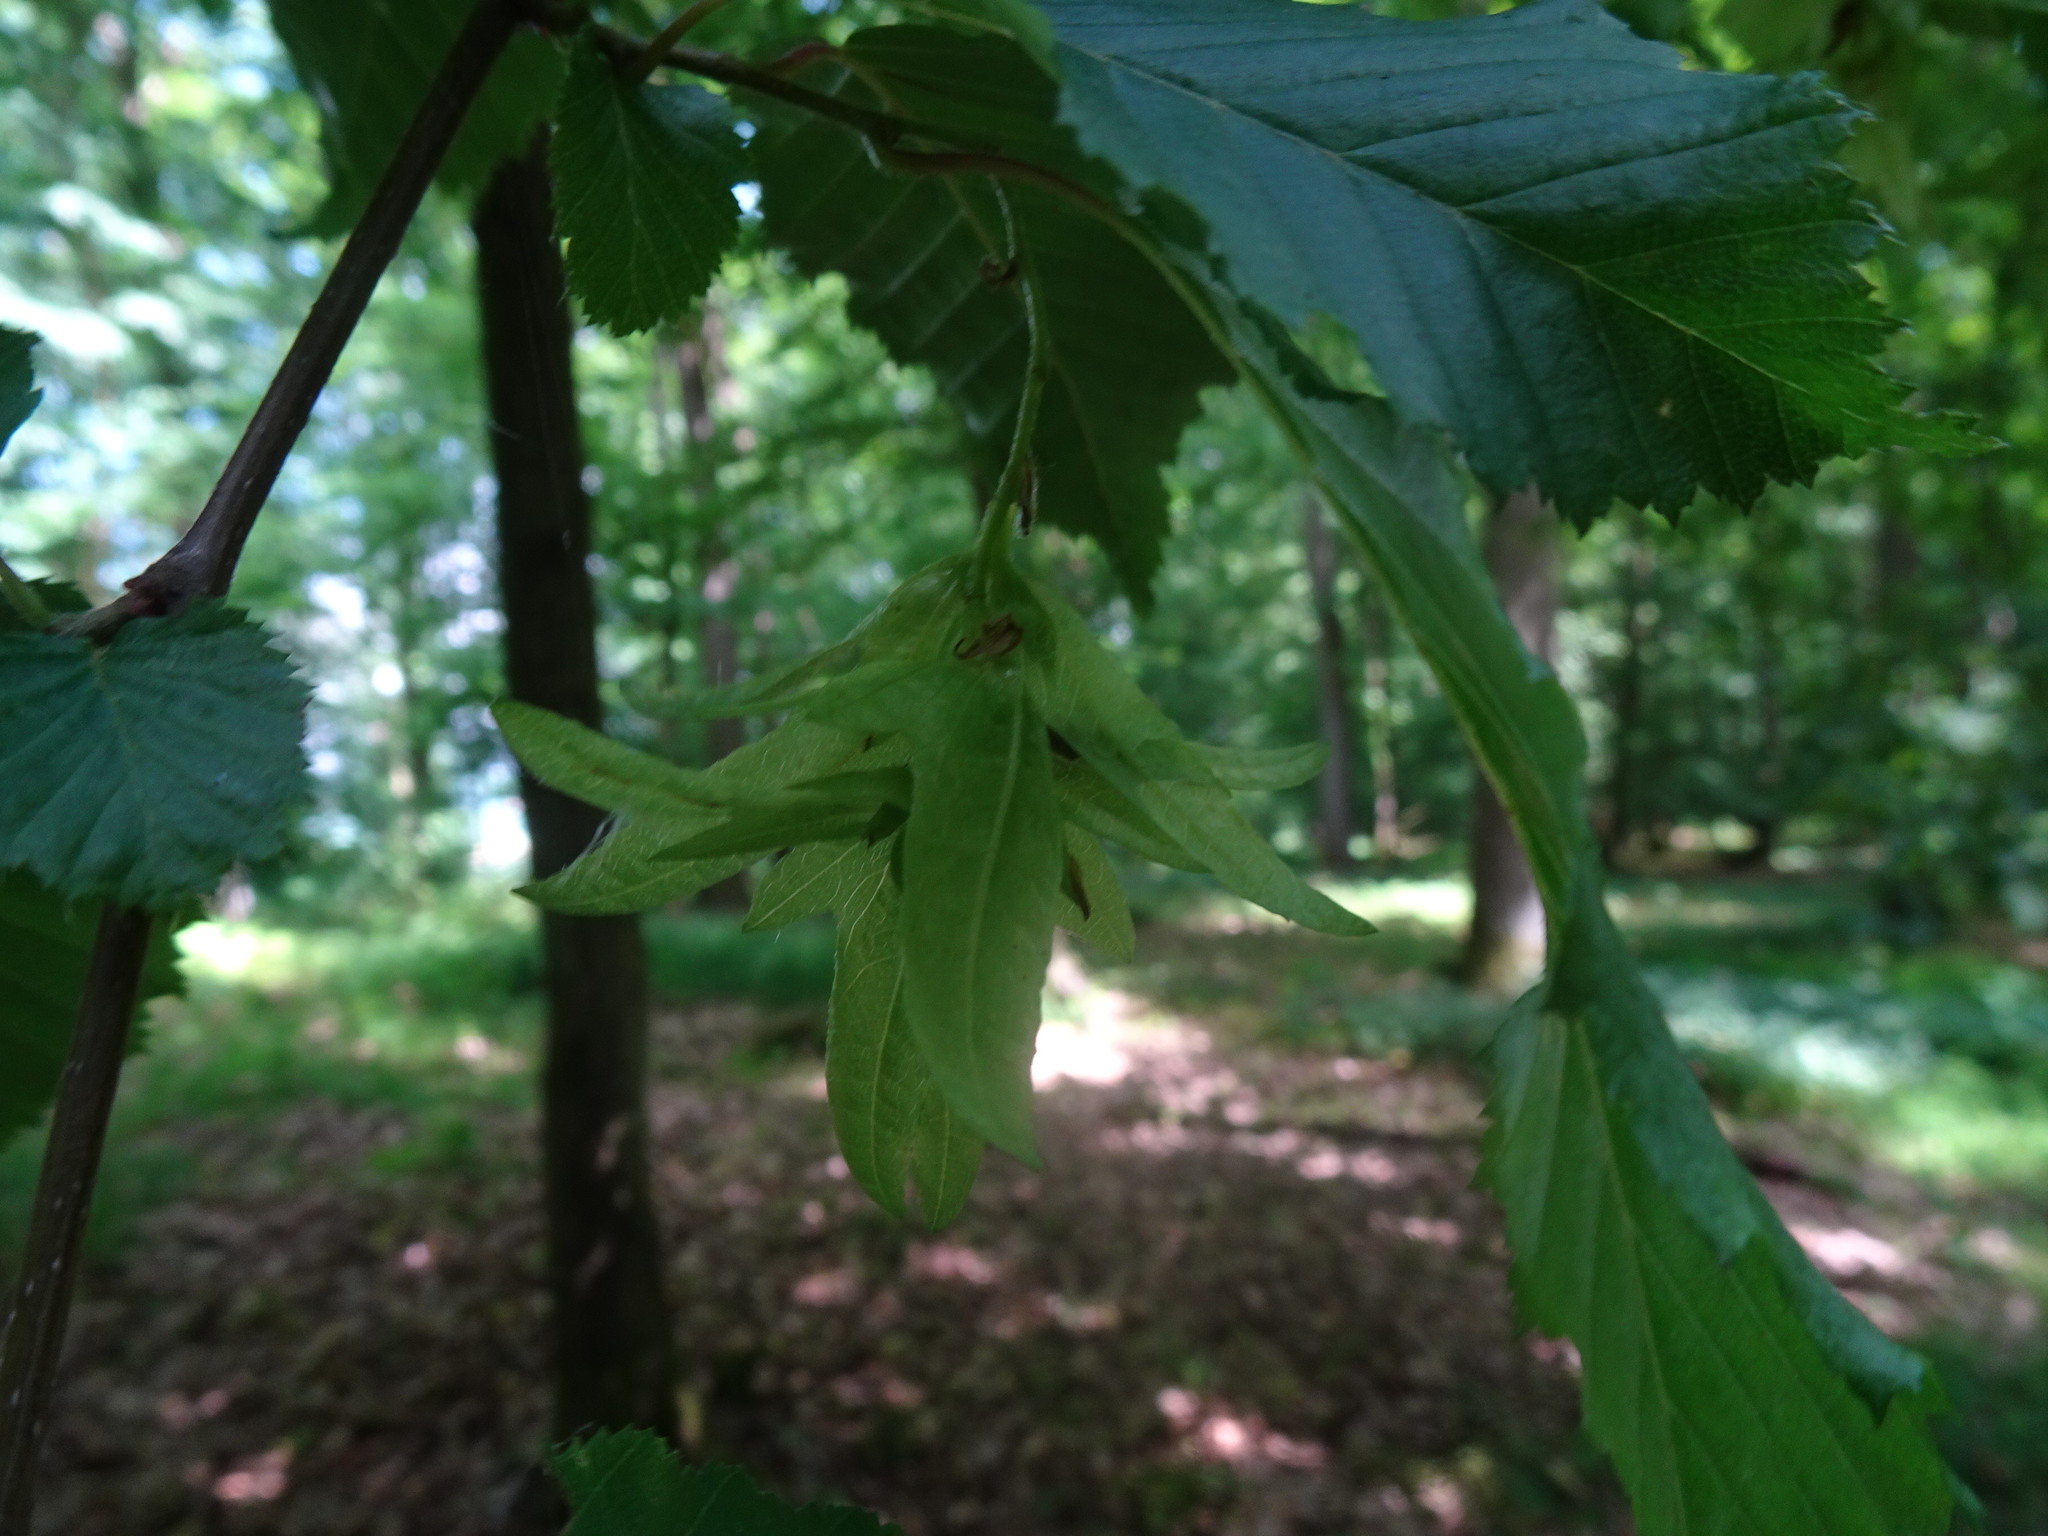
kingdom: Plantae
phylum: Tracheophyta
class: Magnoliopsida
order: Fagales
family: Betulaceae
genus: Carpinus
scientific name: Carpinus betulus
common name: Hornbeam
